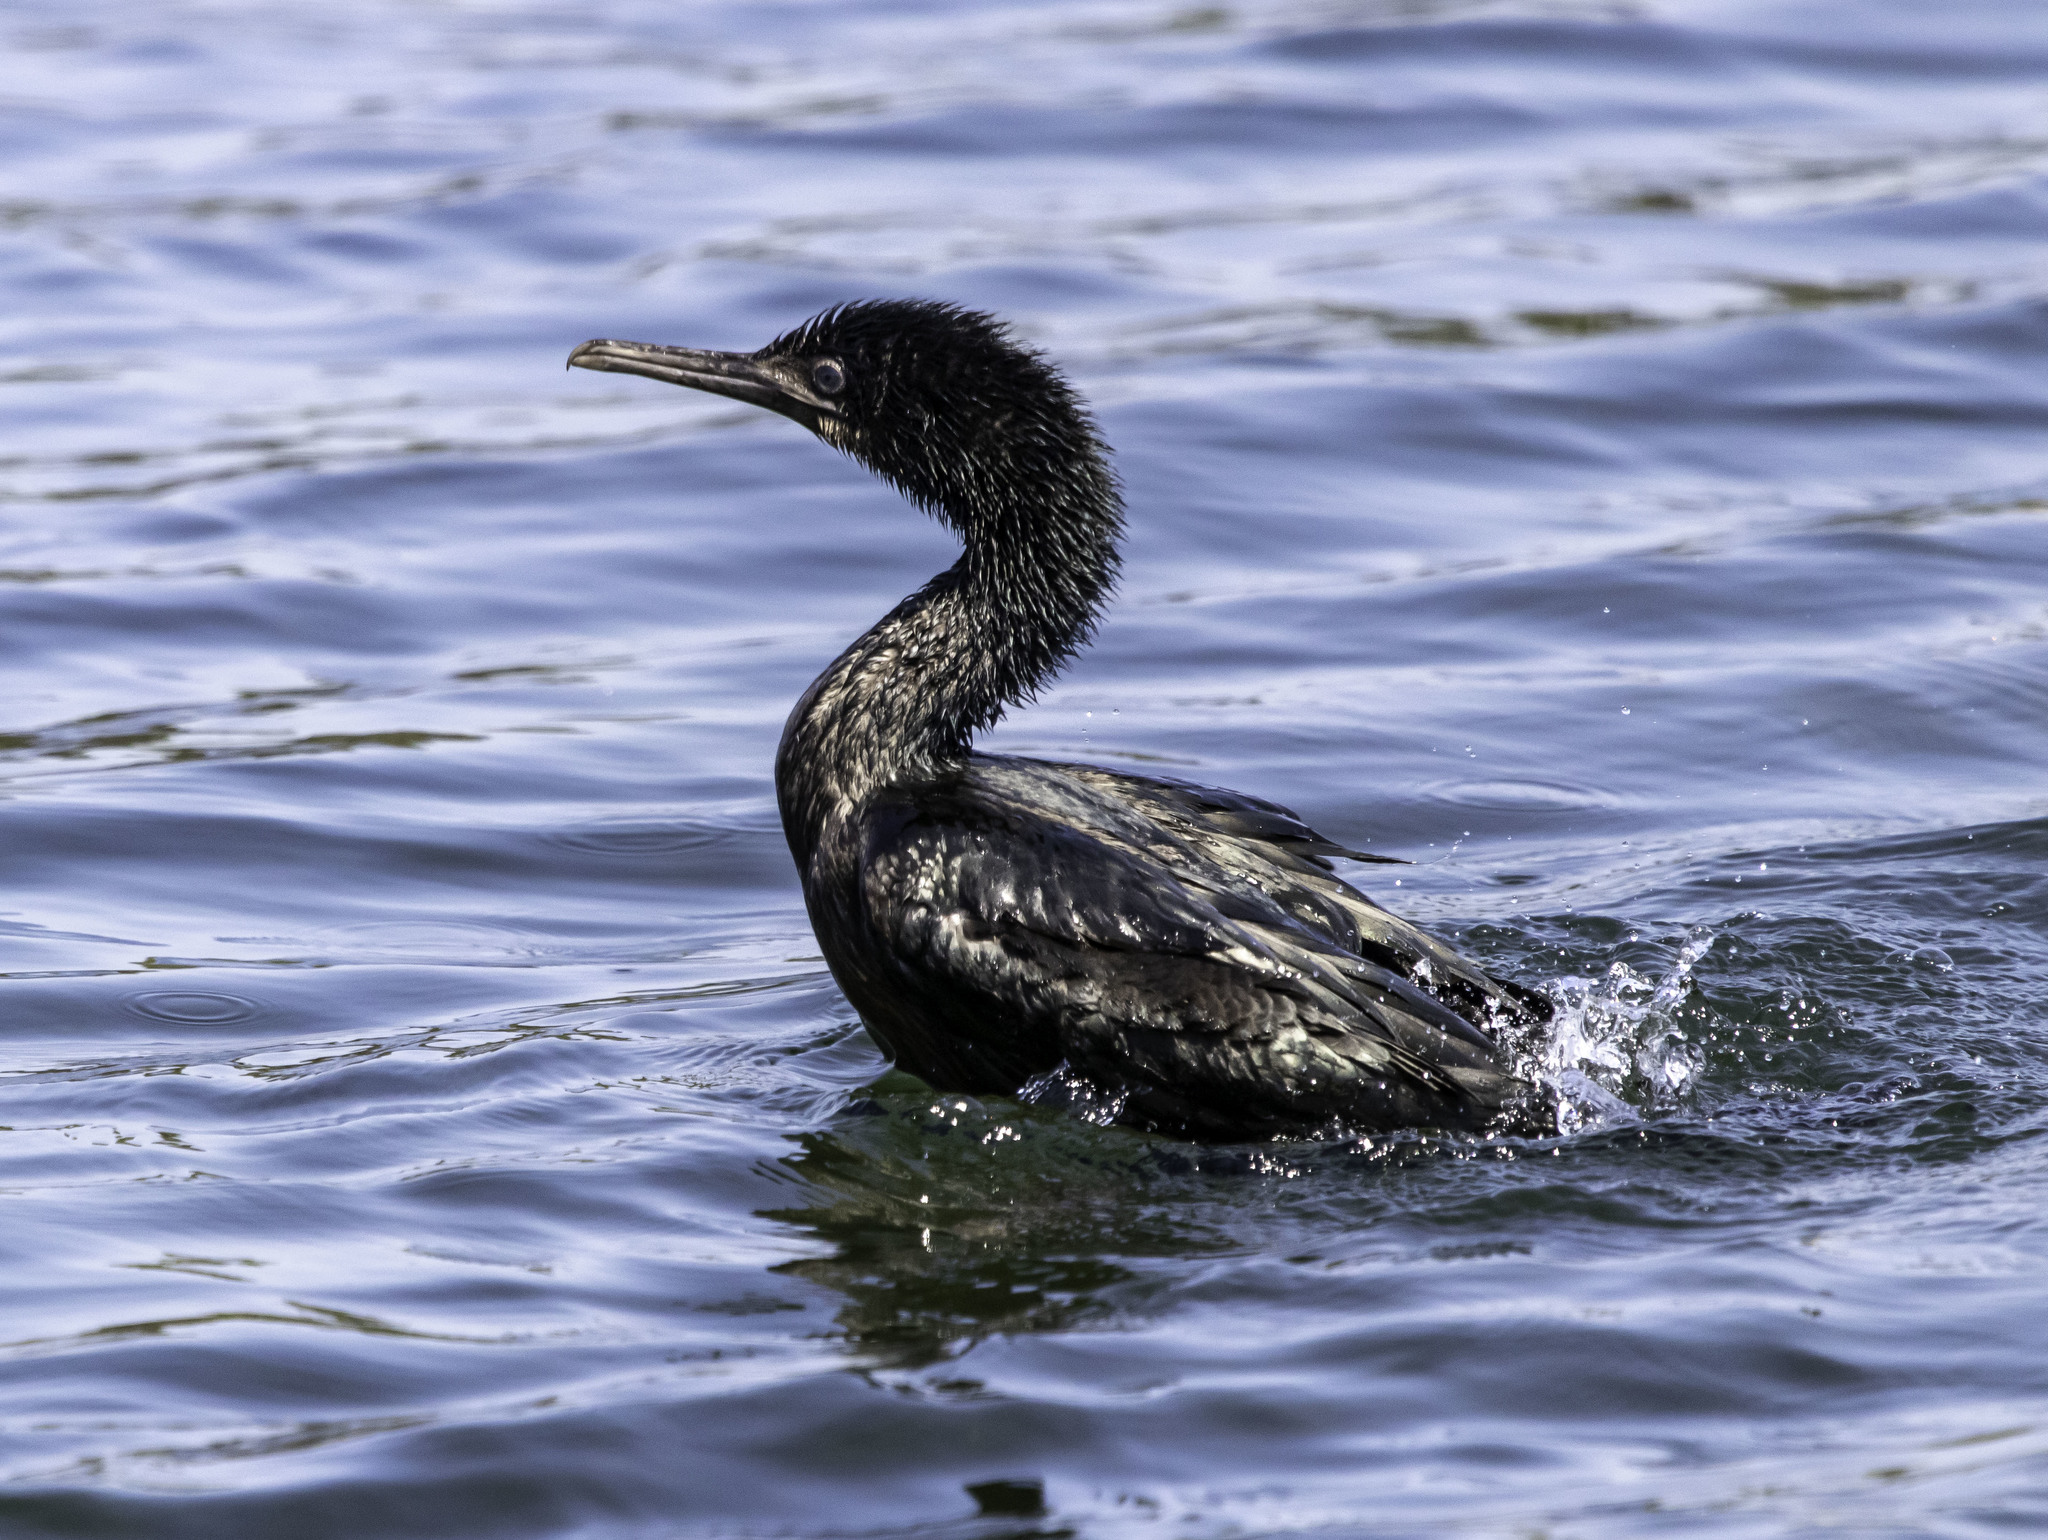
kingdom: Animalia
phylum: Chordata
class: Aves
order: Suliformes
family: Phalacrocoracidae
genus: Urile
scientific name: Urile penicillatus
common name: Brandt's cormorant
